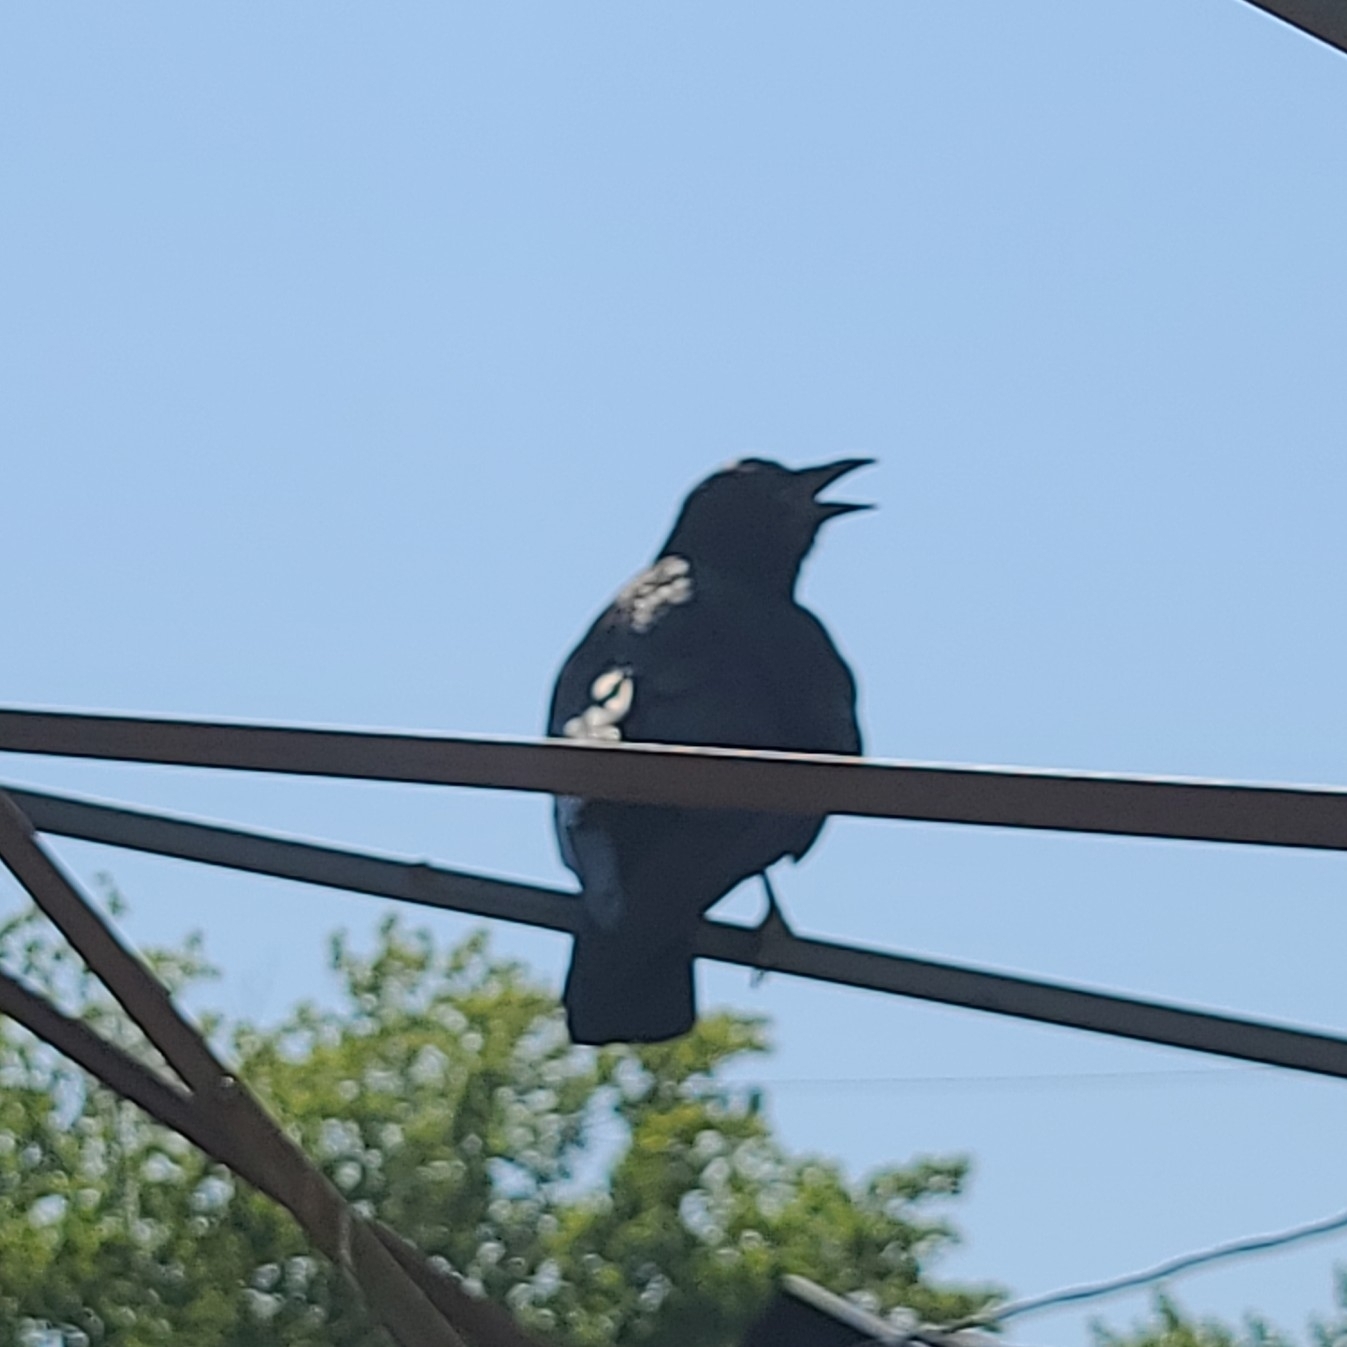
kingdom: Animalia
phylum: Chordata
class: Aves
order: Passeriformes
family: Corvidae
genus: Corvus
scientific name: Corvus brachyrhynchos
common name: American crow
